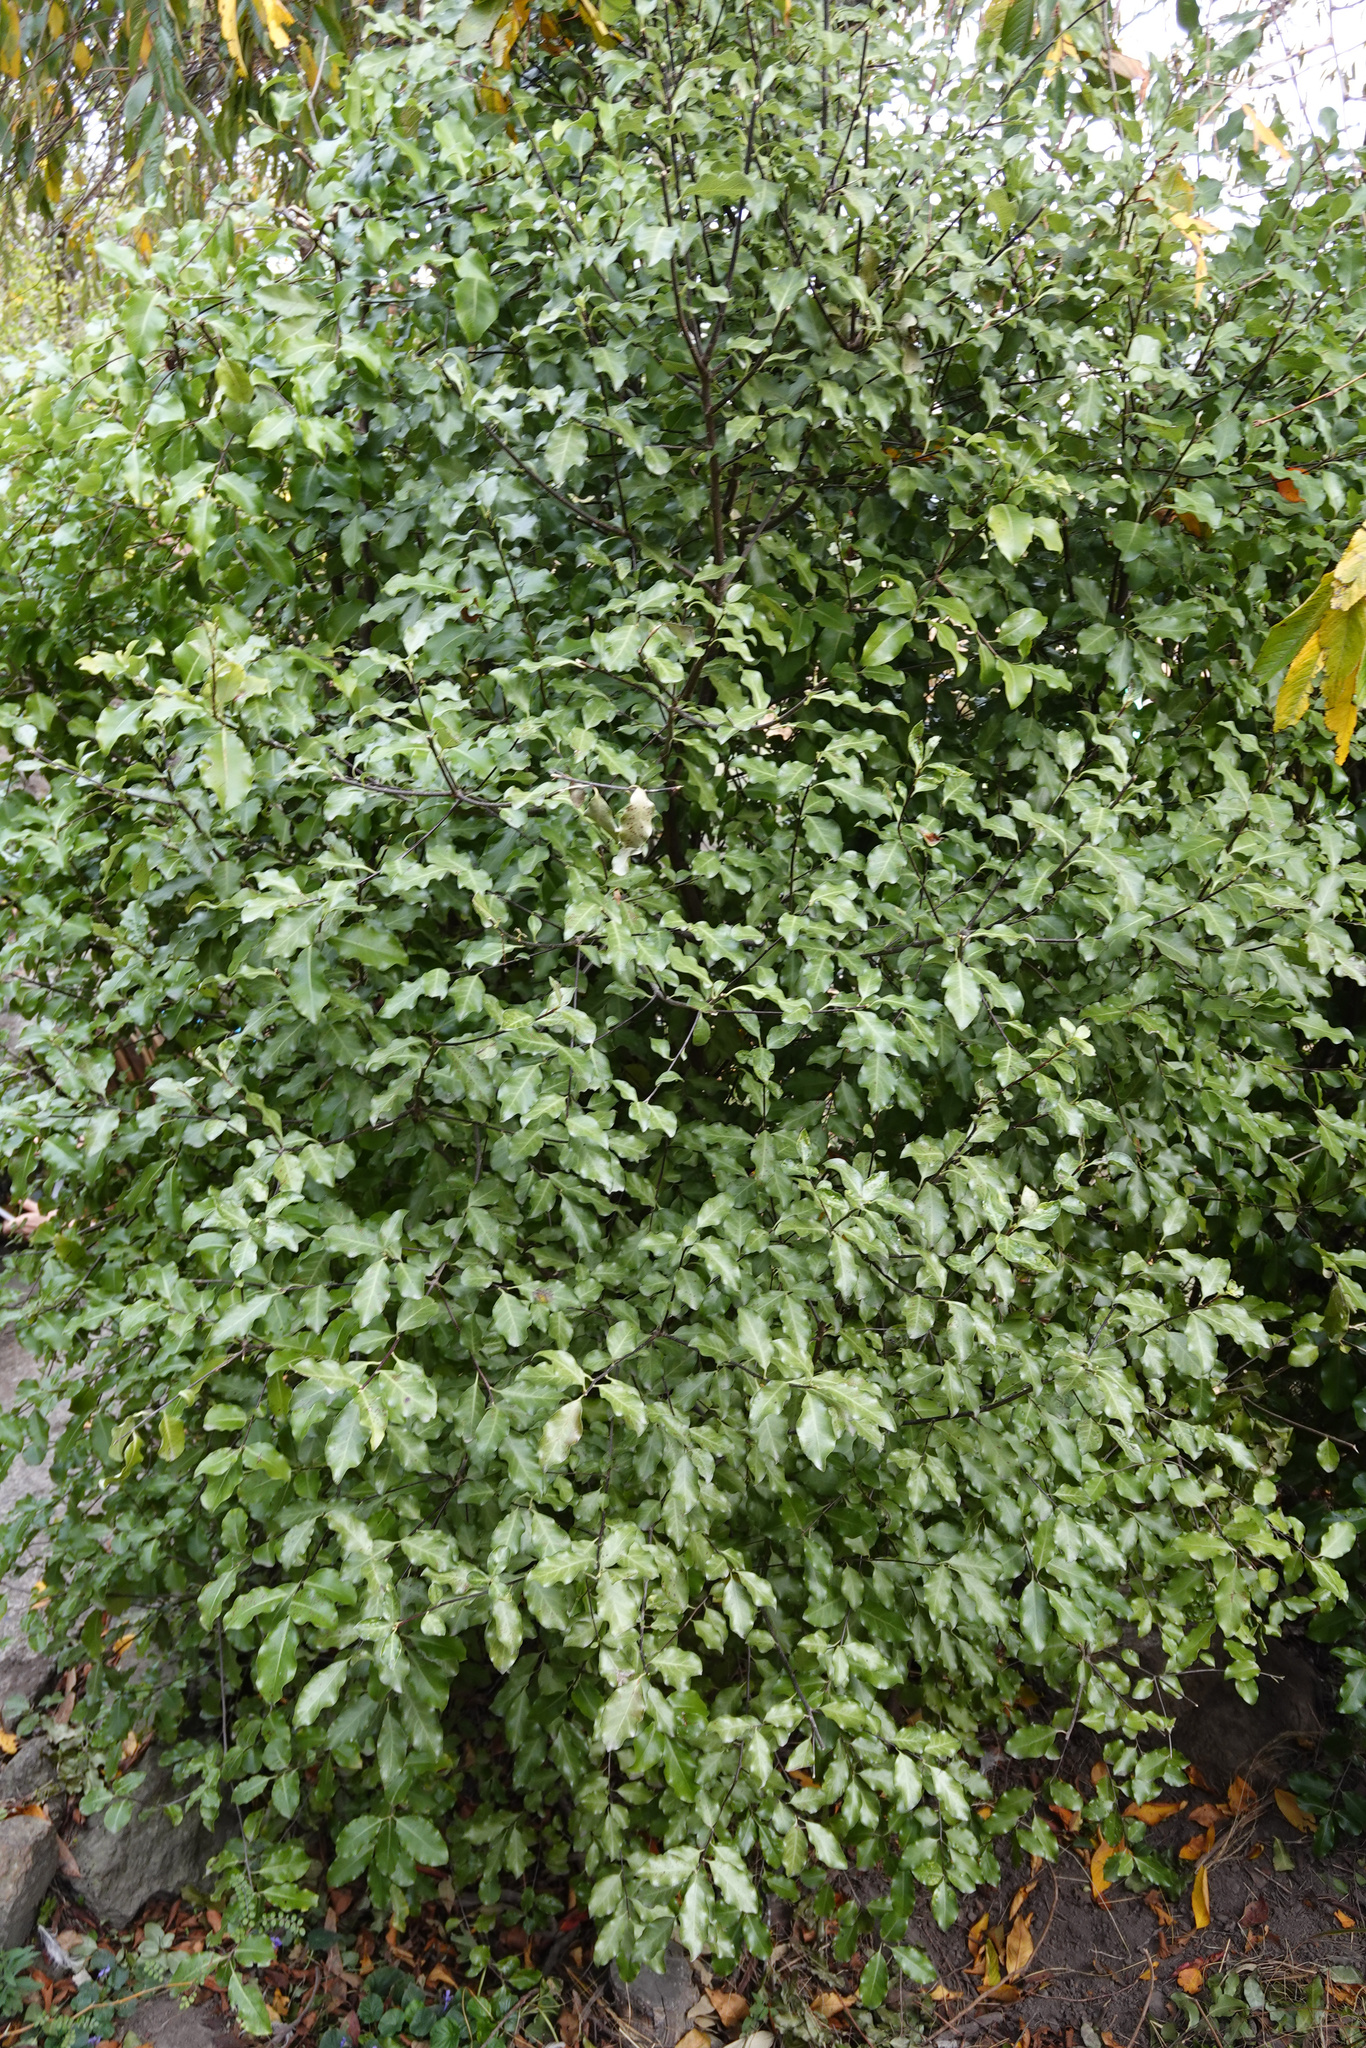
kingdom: Plantae
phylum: Tracheophyta
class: Magnoliopsida
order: Apiales
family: Pittosporaceae
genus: Pittosporum
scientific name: Pittosporum tenuifolium
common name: Kohuhu
